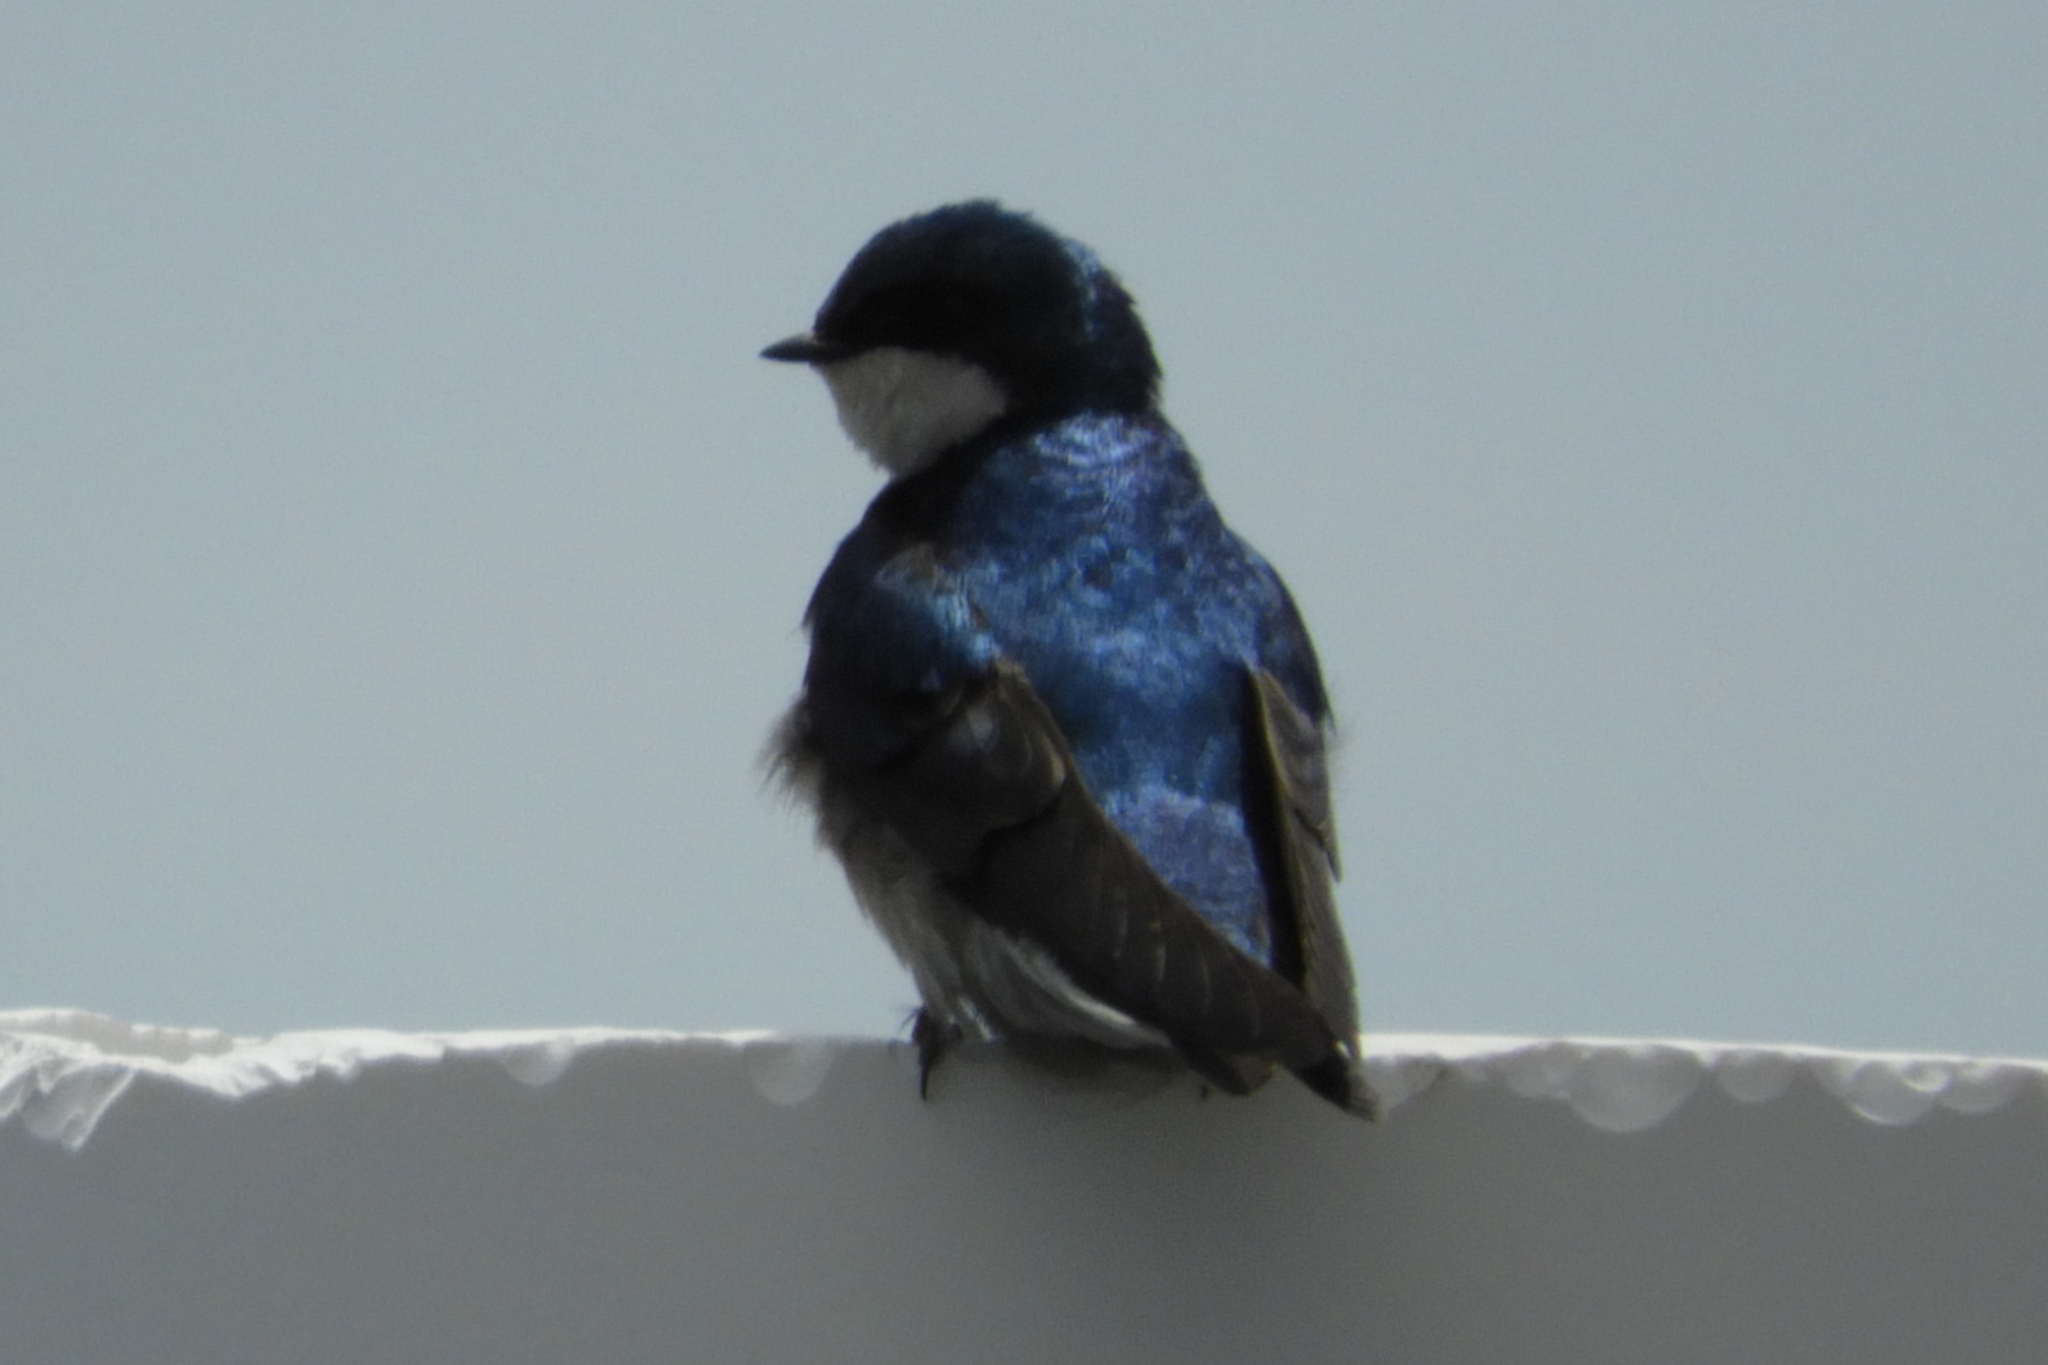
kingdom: Animalia
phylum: Chordata
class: Aves
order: Passeriformes
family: Hirundinidae
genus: Tachycineta
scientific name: Tachycineta bicolor
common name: Tree swallow
